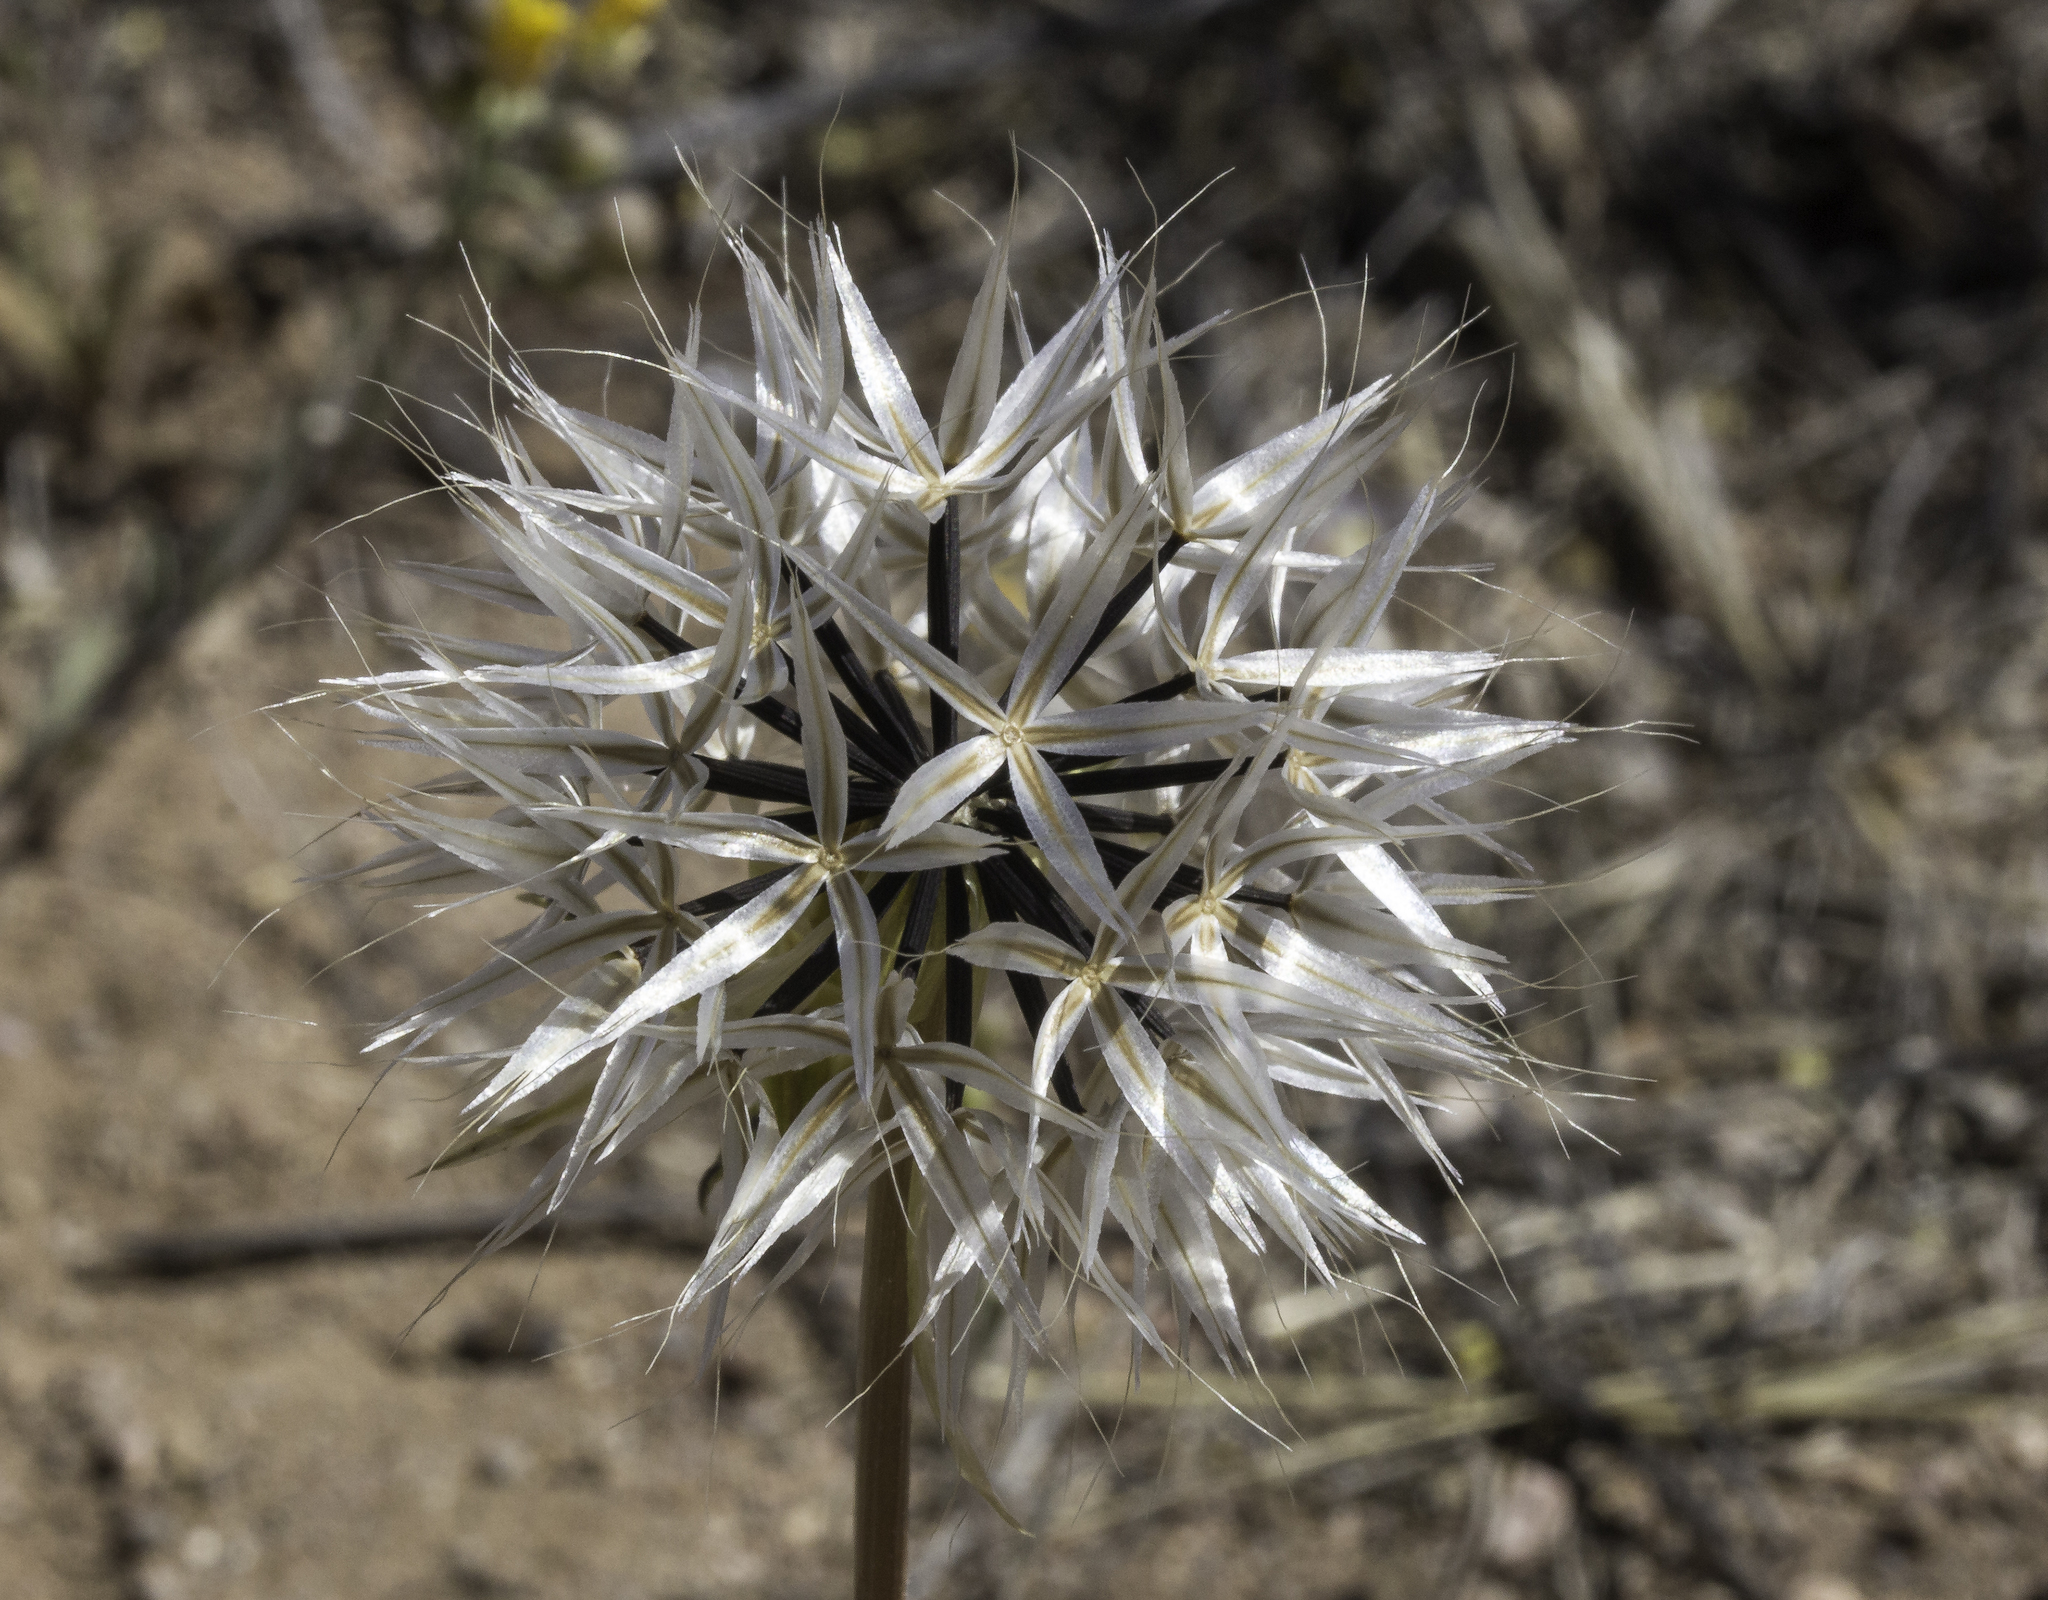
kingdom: Plantae
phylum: Tracheophyta
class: Magnoliopsida
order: Asterales
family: Asteraceae
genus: Microseris
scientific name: Microseris lindleyi
